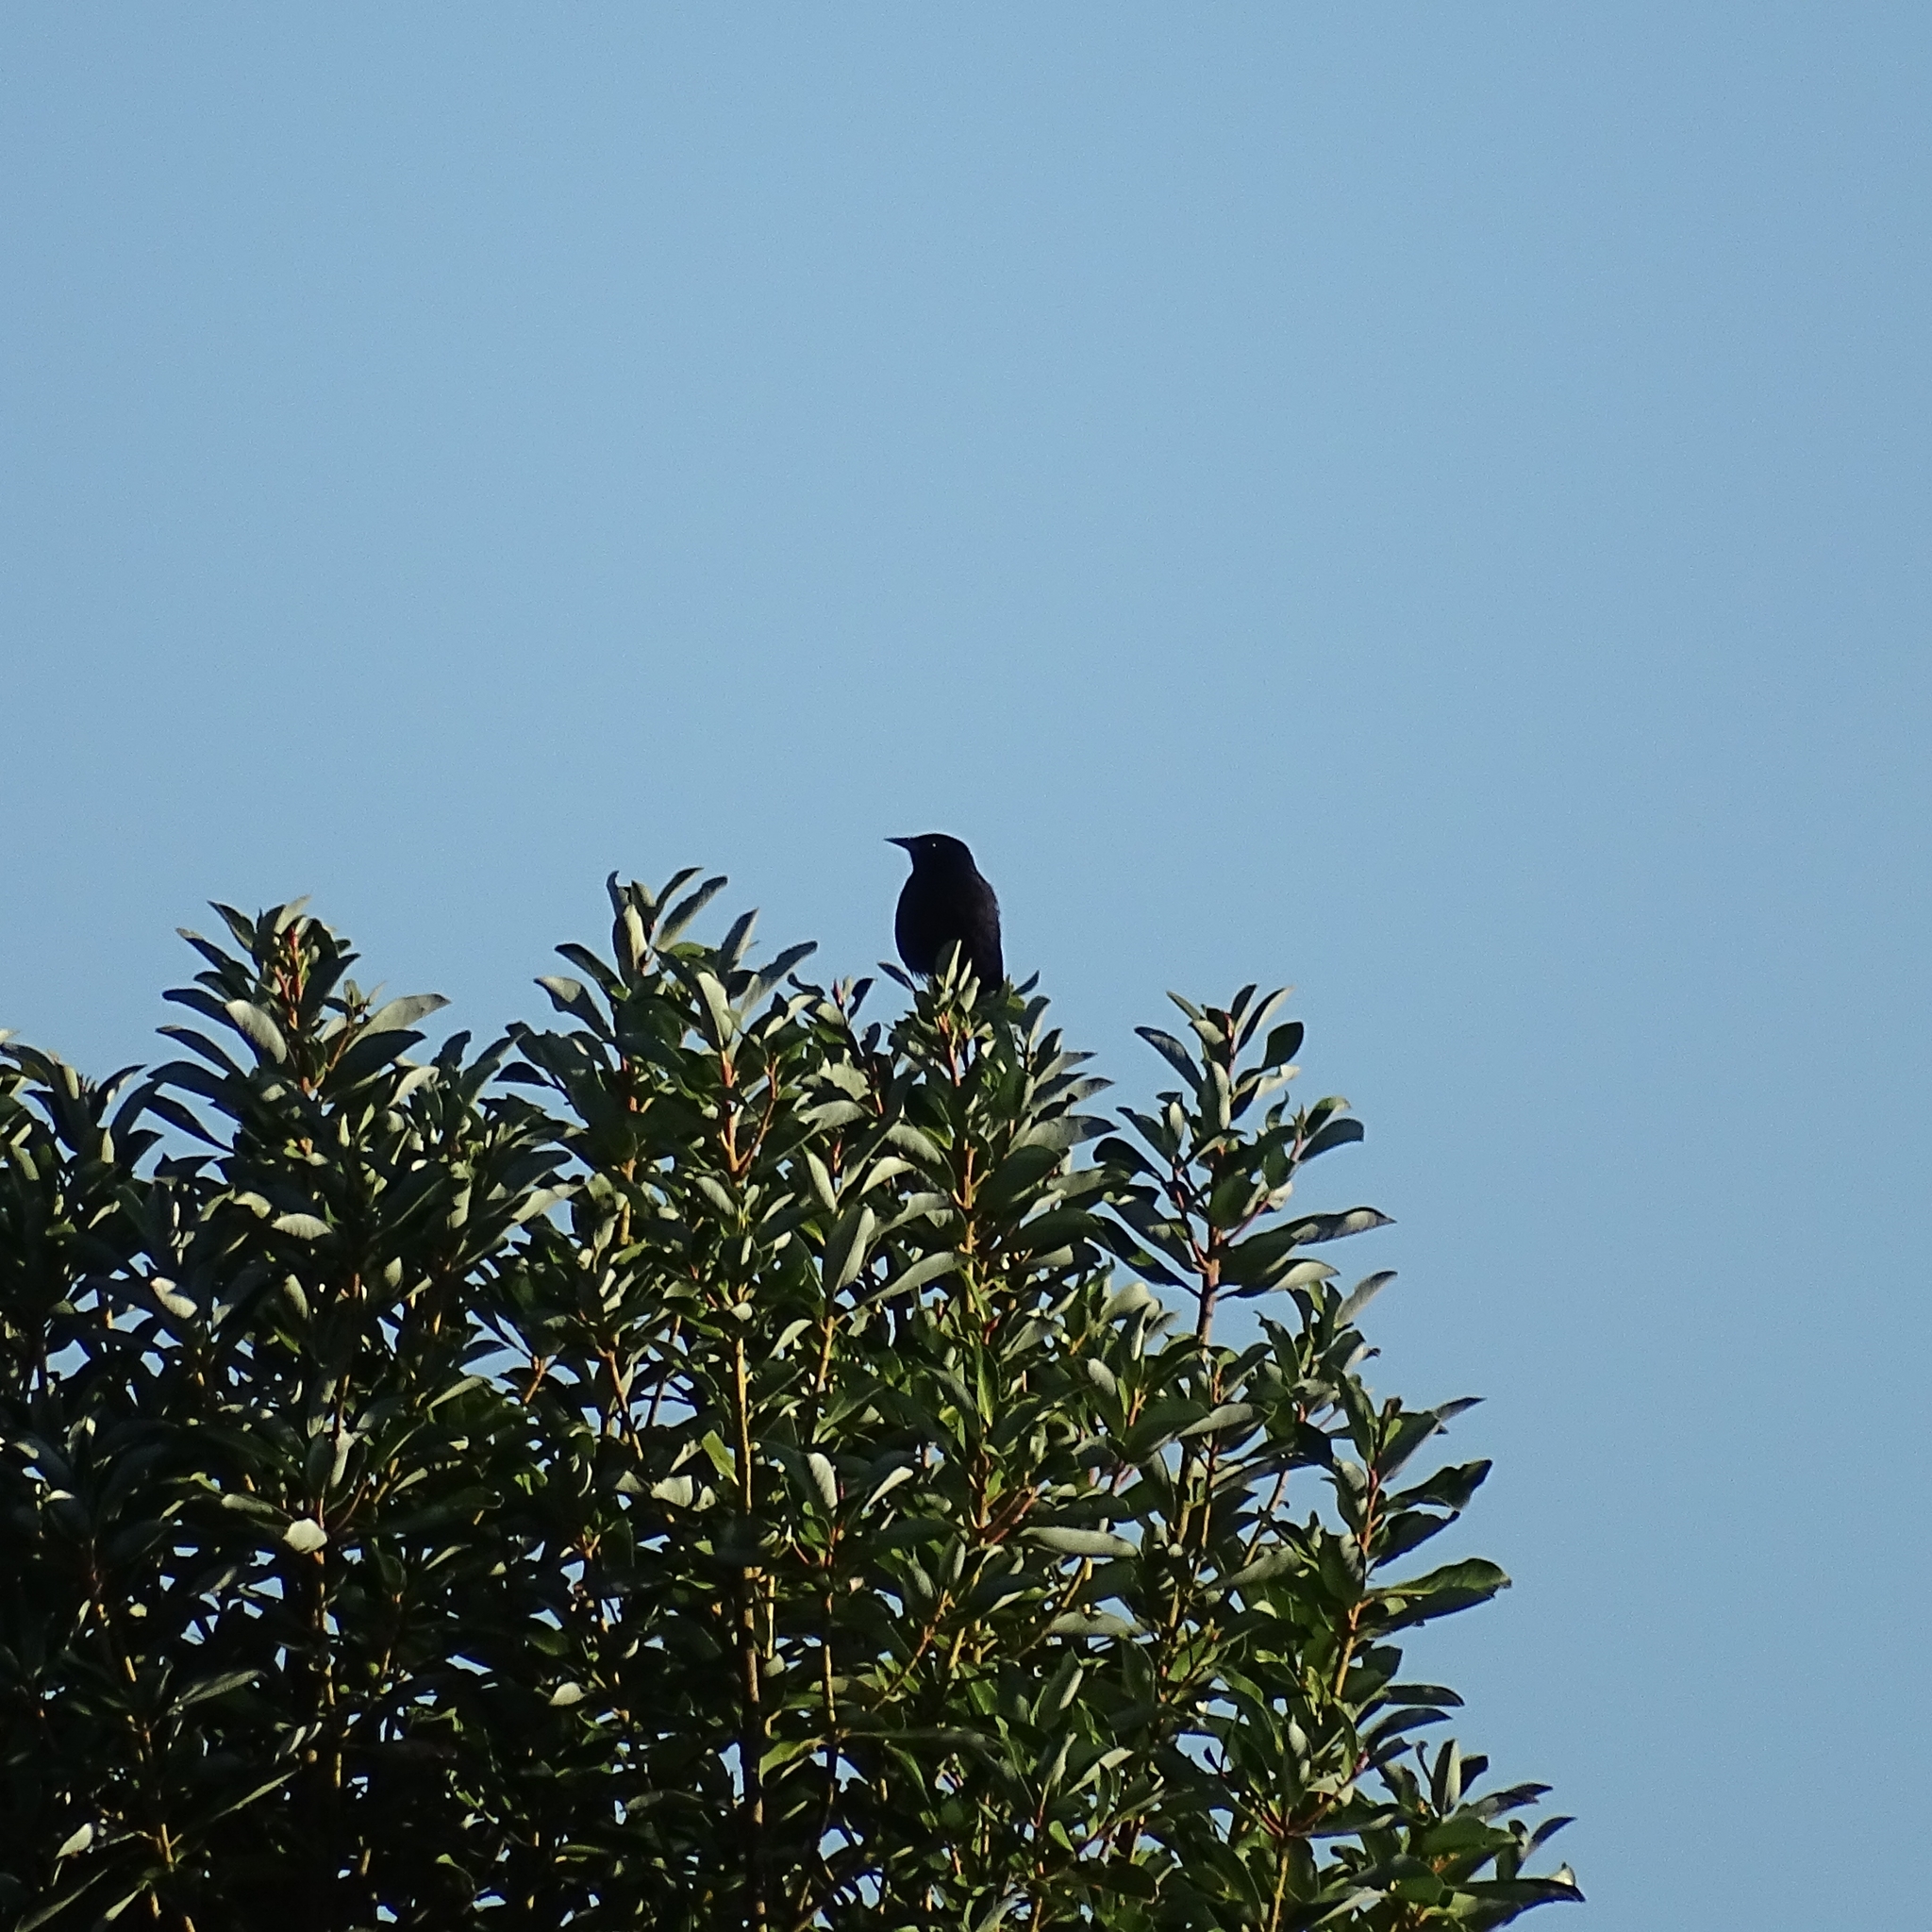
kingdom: Animalia
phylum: Chordata
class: Aves
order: Passeriformes
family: Icteridae
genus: Curaeus
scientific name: Curaeus curaeus
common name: Austral blackbird
